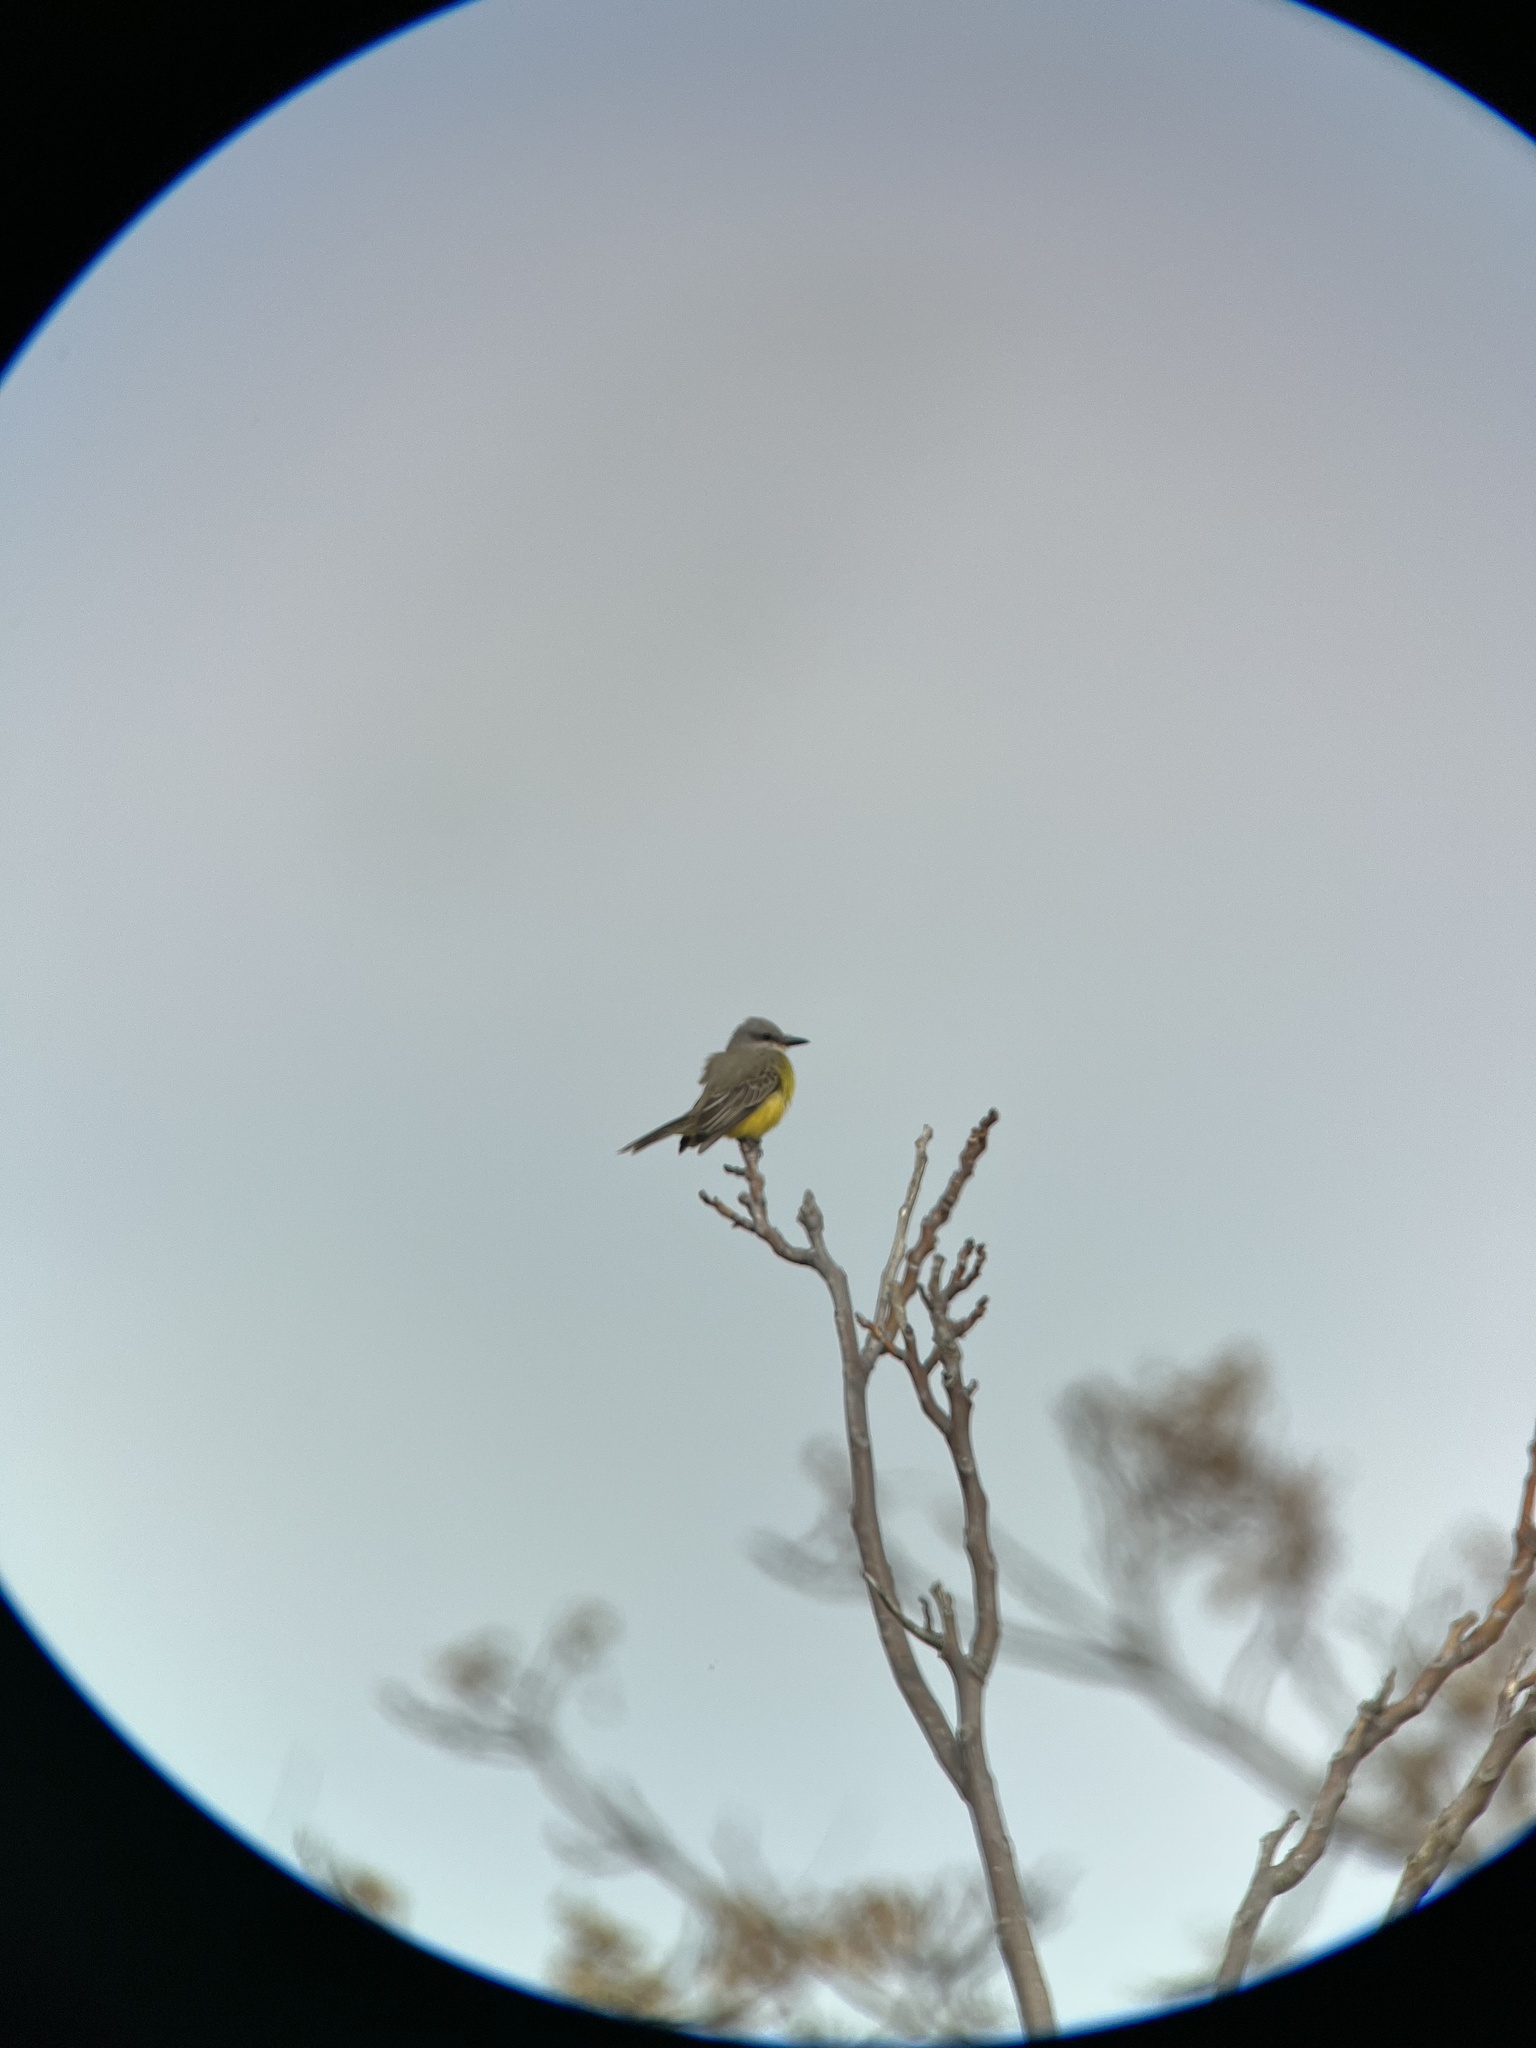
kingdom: Animalia
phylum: Chordata
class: Aves
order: Passeriformes
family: Tyrannidae
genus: Tyrannus
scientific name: Tyrannus melancholicus
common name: Tropical kingbird
